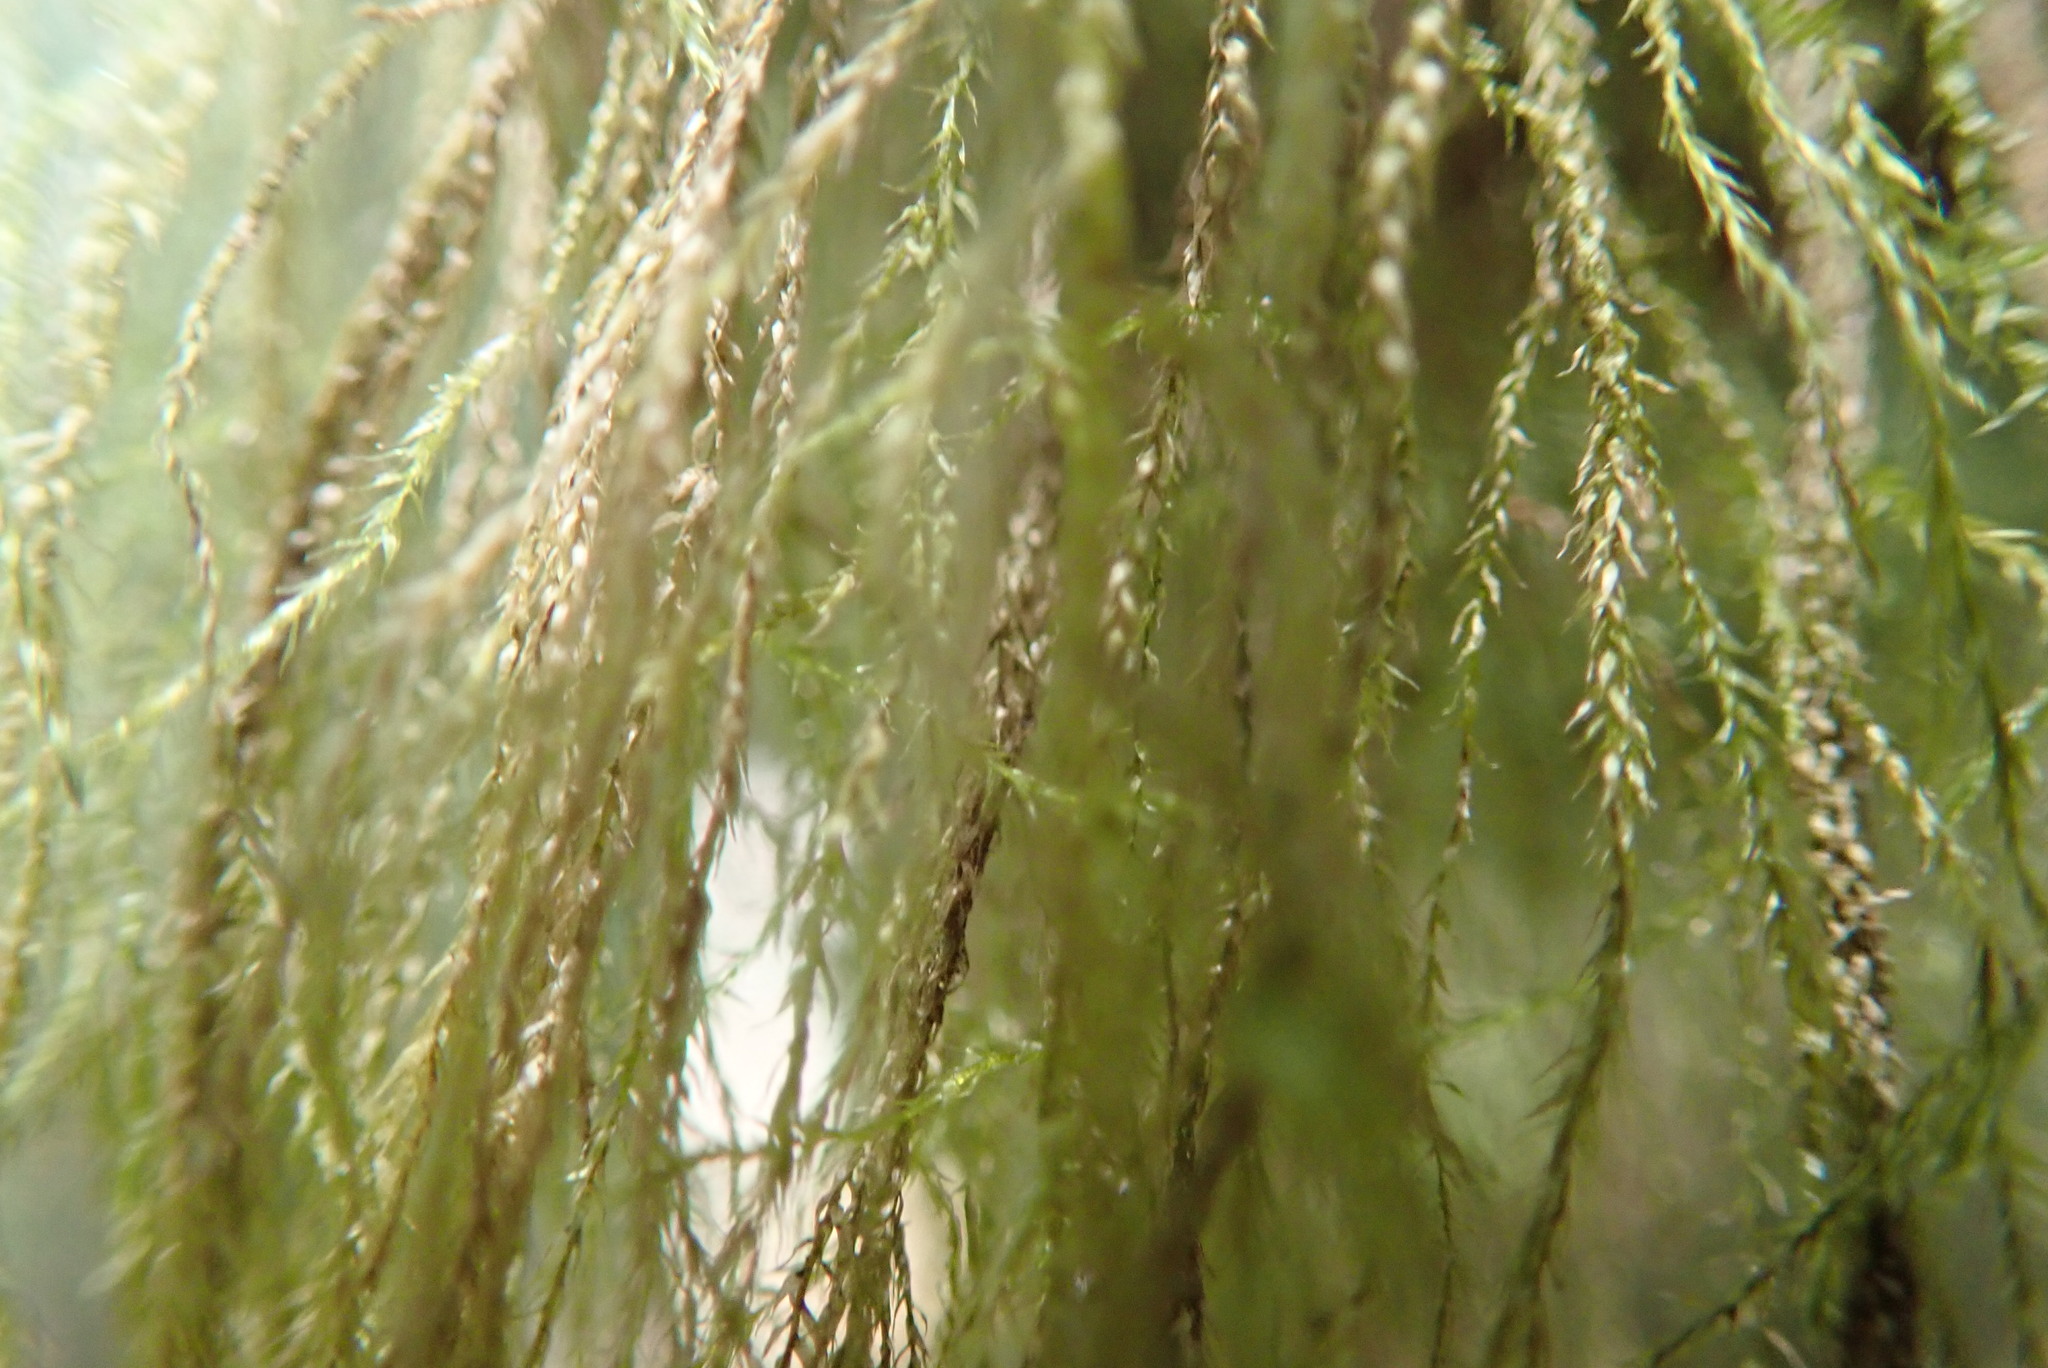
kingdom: Plantae
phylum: Bryophyta
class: Bryopsida
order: Hypnales
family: Lembophyllaceae
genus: Pseudisothecium
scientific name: Pseudisothecium stoloniferum
